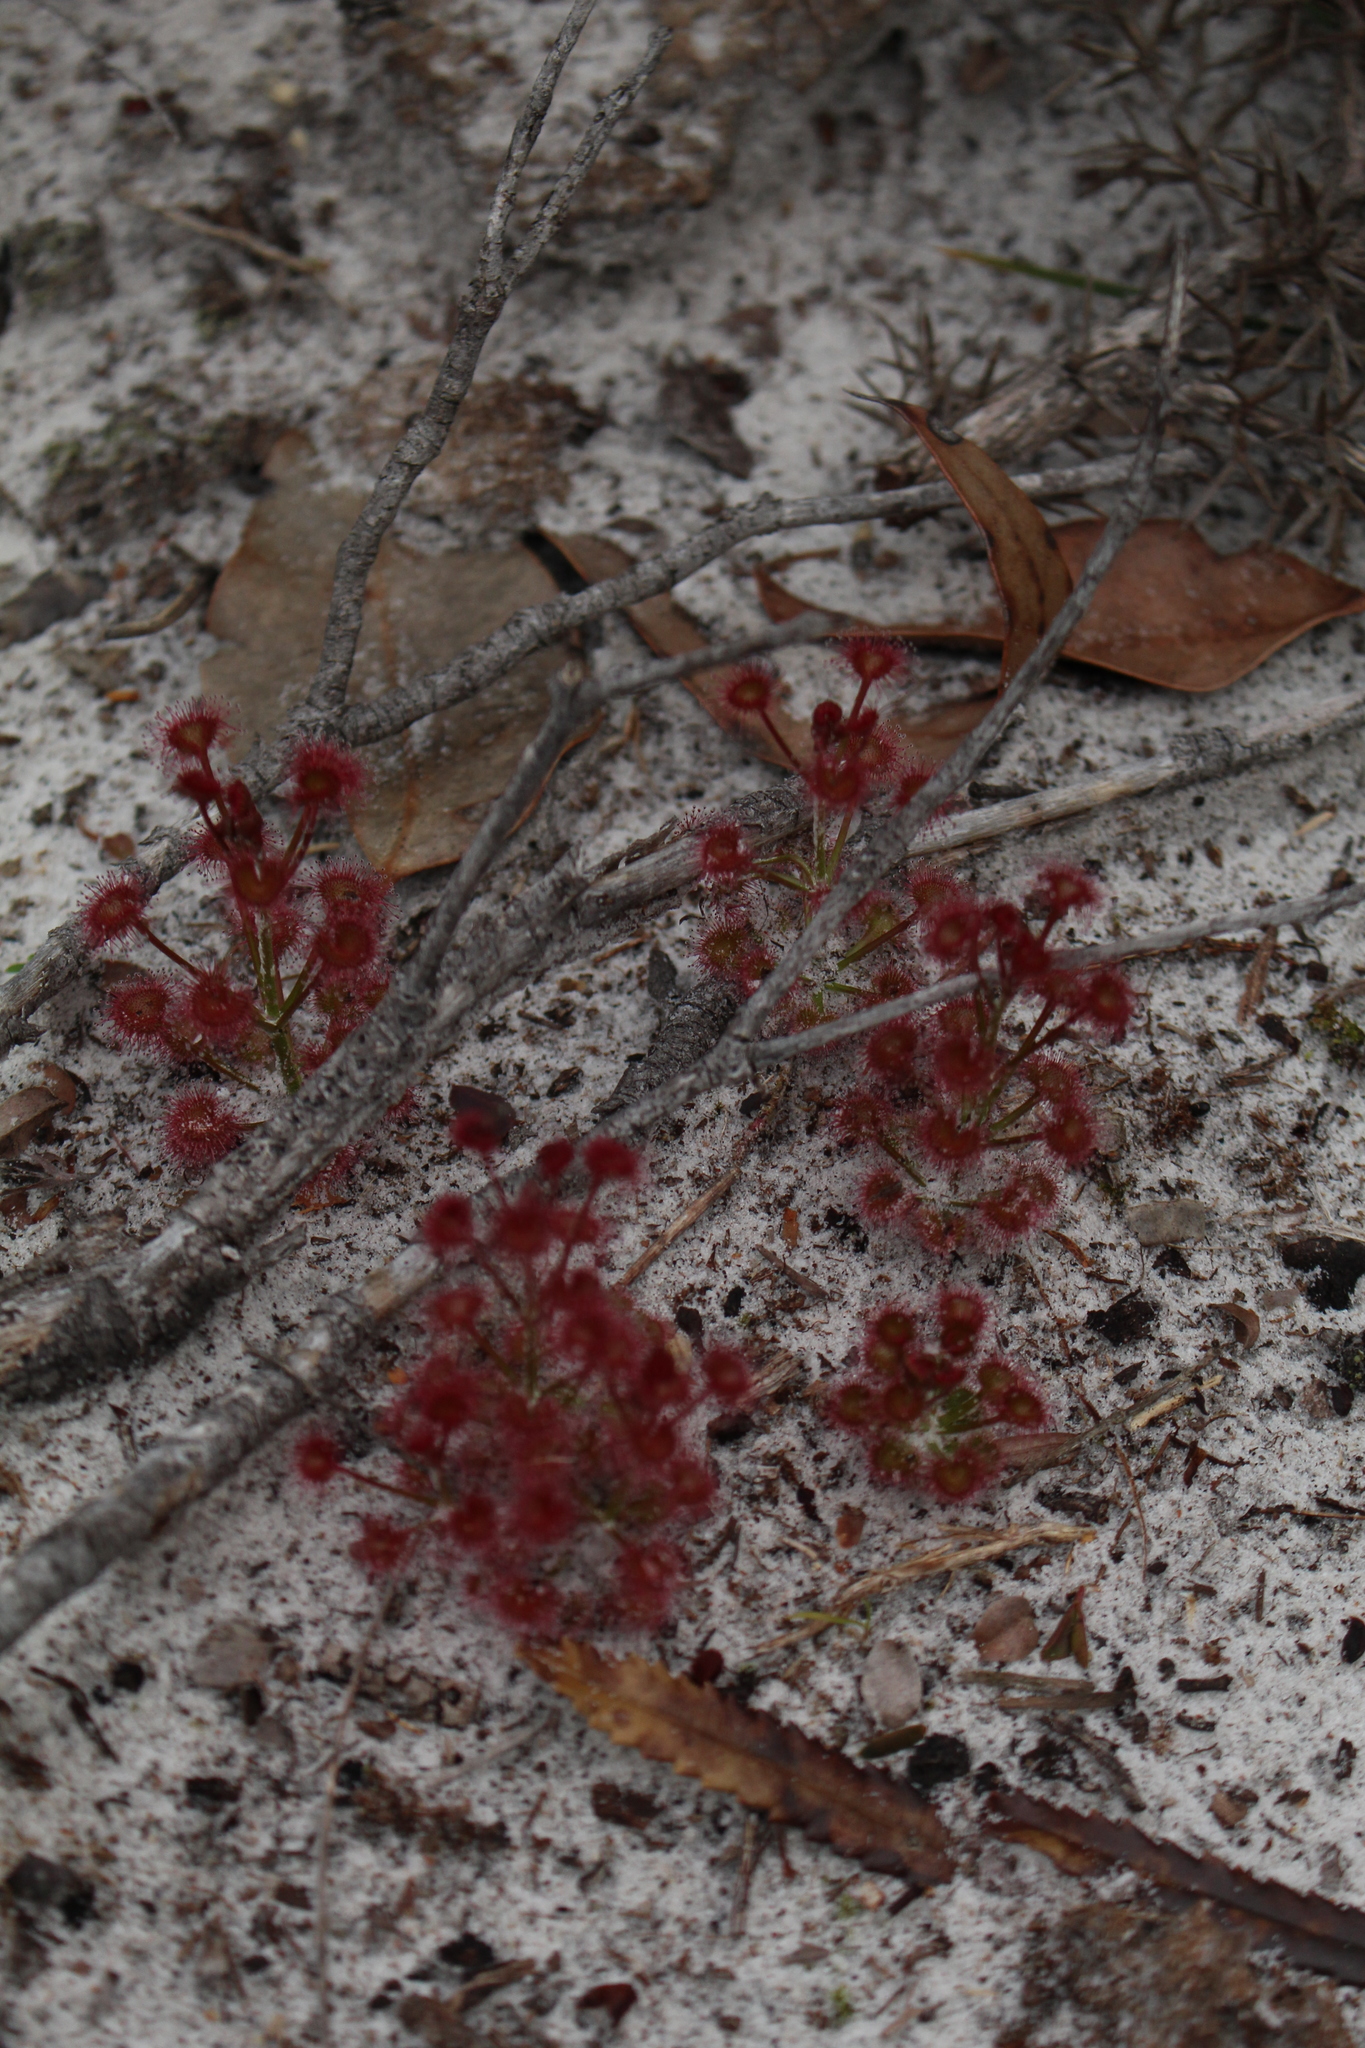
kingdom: Plantae
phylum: Tracheophyta
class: Magnoliopsida
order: Caryophyllales
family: Droseraceae
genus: Drosera
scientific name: Drosera stolonifera
